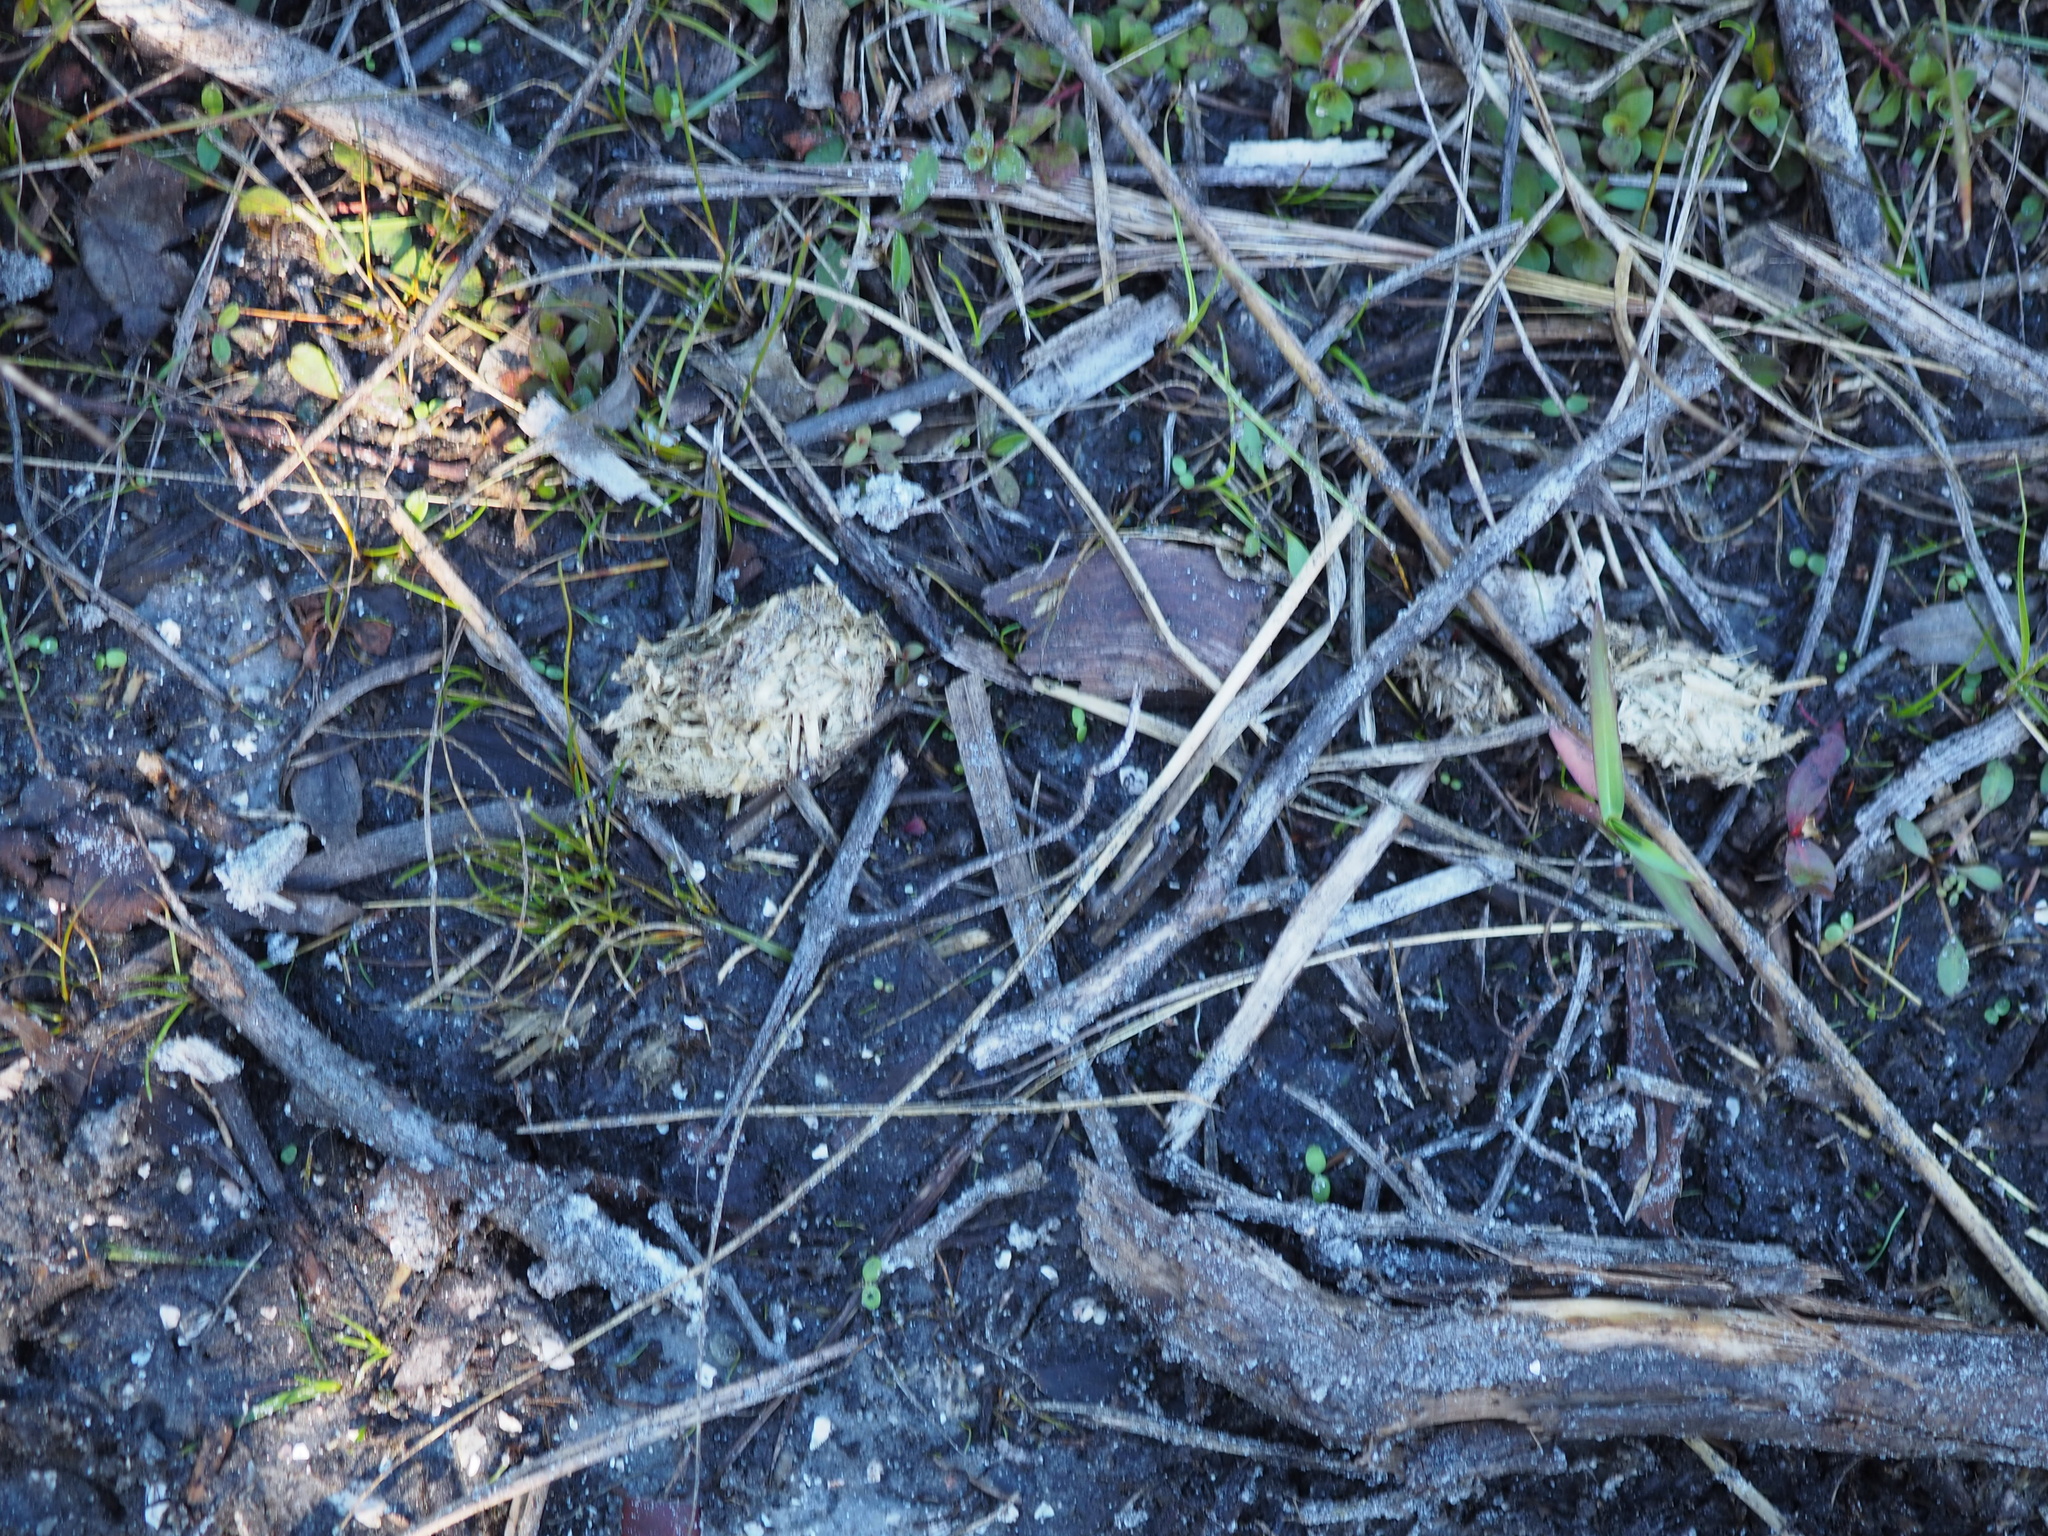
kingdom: Animalia
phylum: Chordata
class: Testudines
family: Testudinidae
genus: Gopherus
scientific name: Gopherus polyphemus
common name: Florida gopher tortoise
